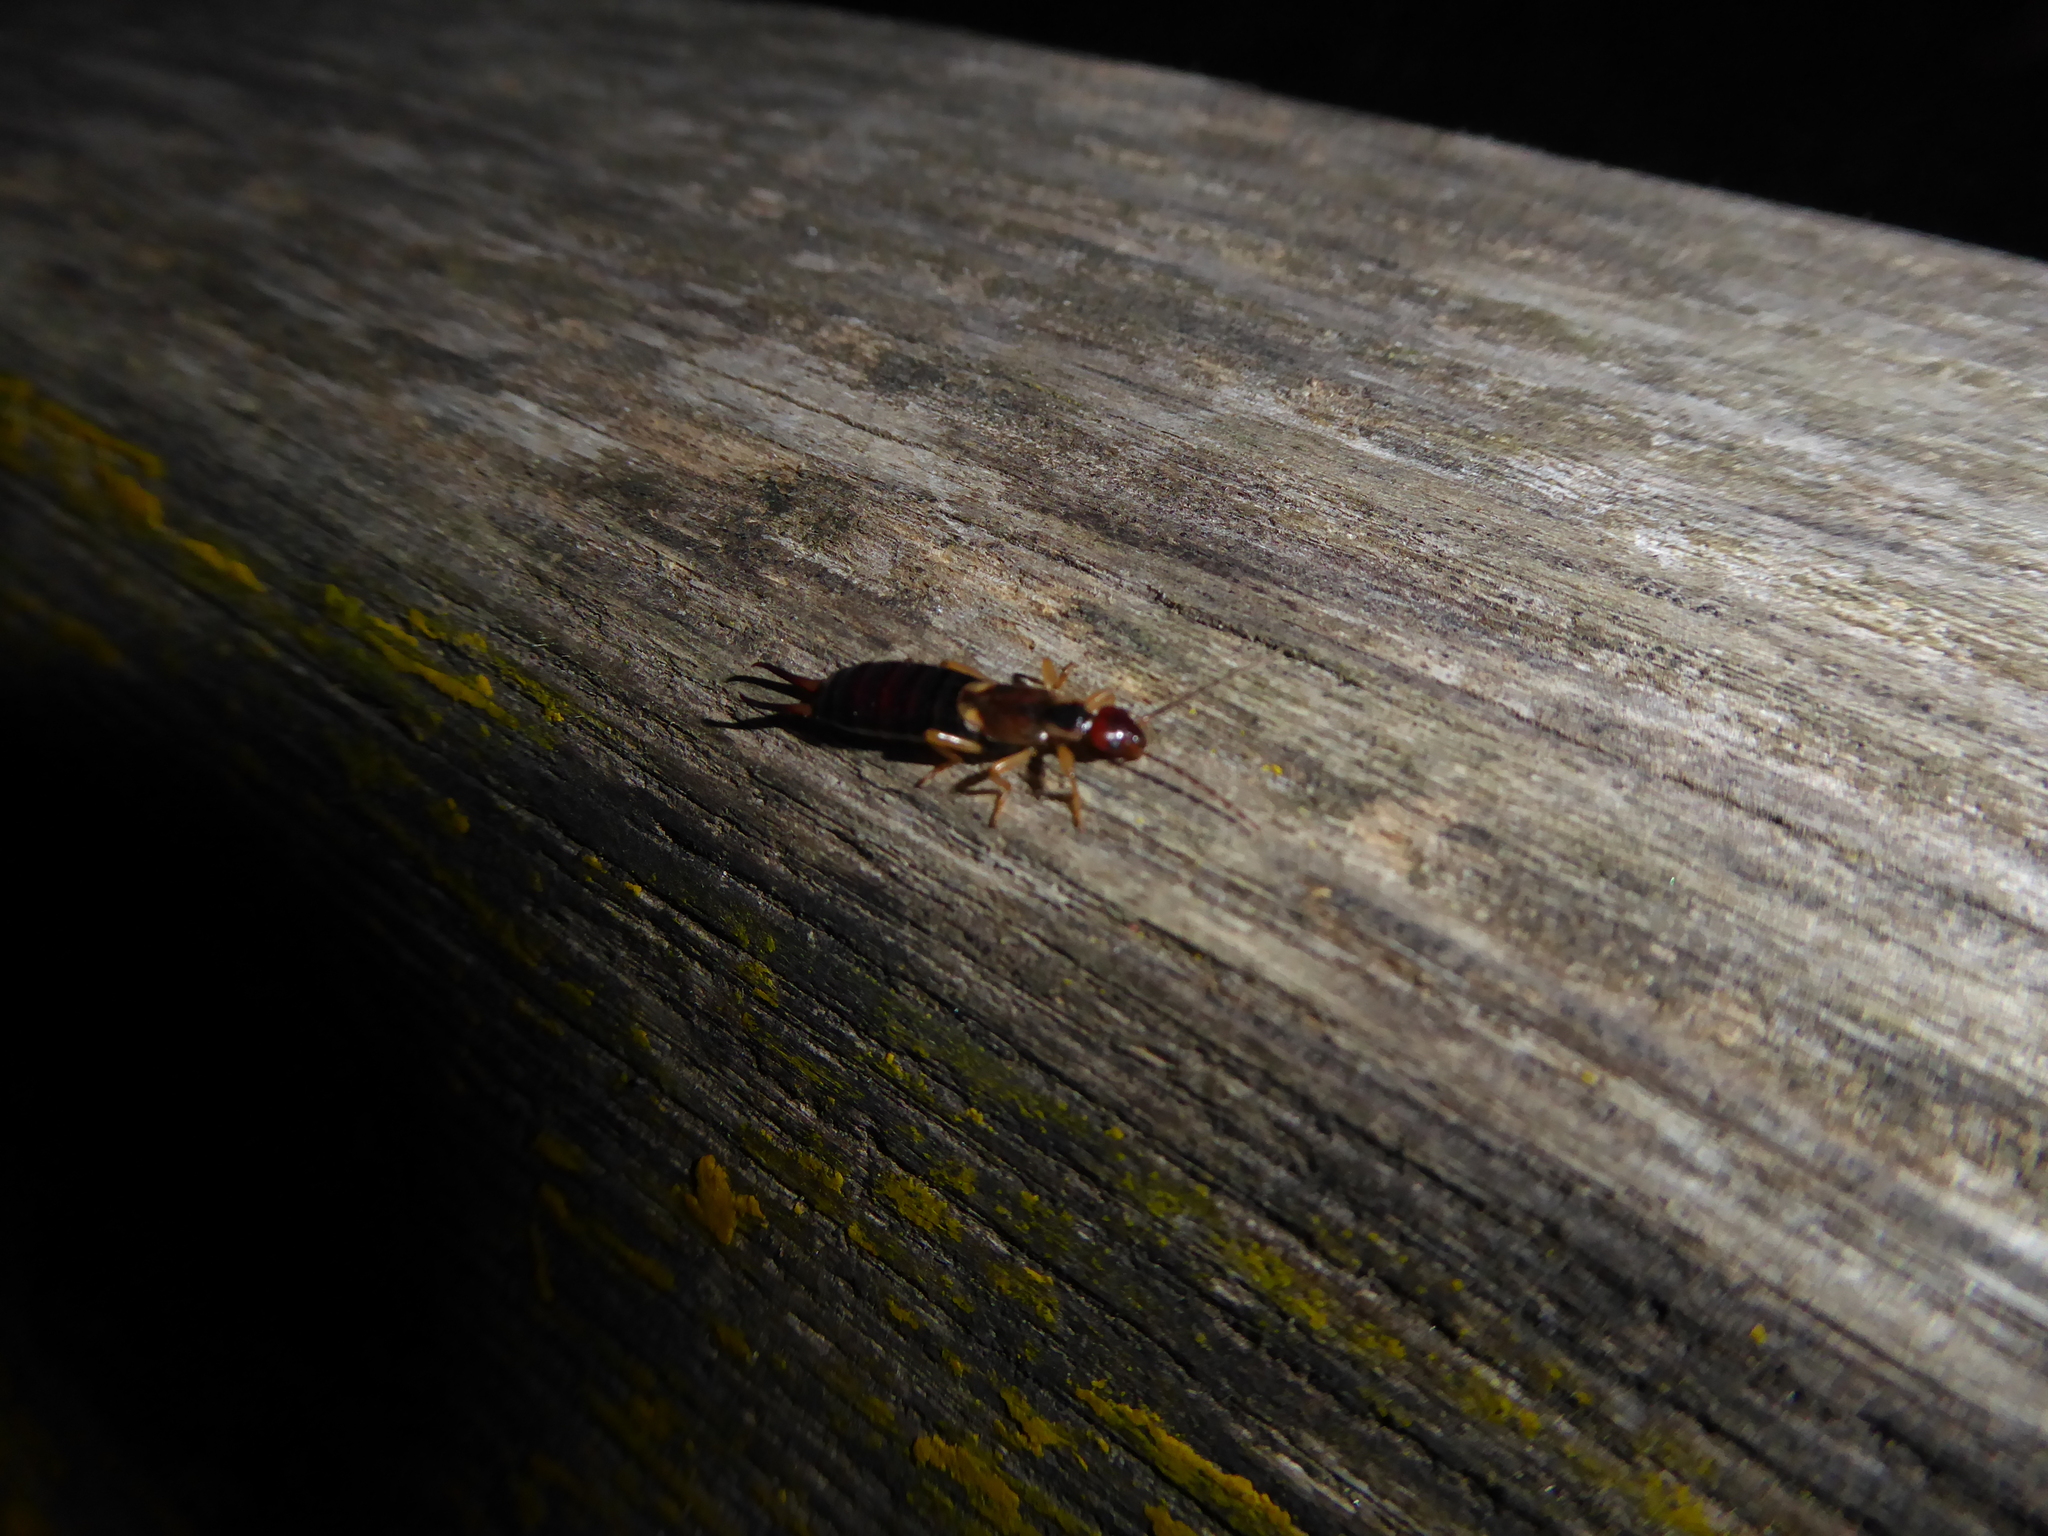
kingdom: Animalia
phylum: Arthropoda
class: Insecta
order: Dermaptera
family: Forficulidae
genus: Forficula
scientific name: Forficula
